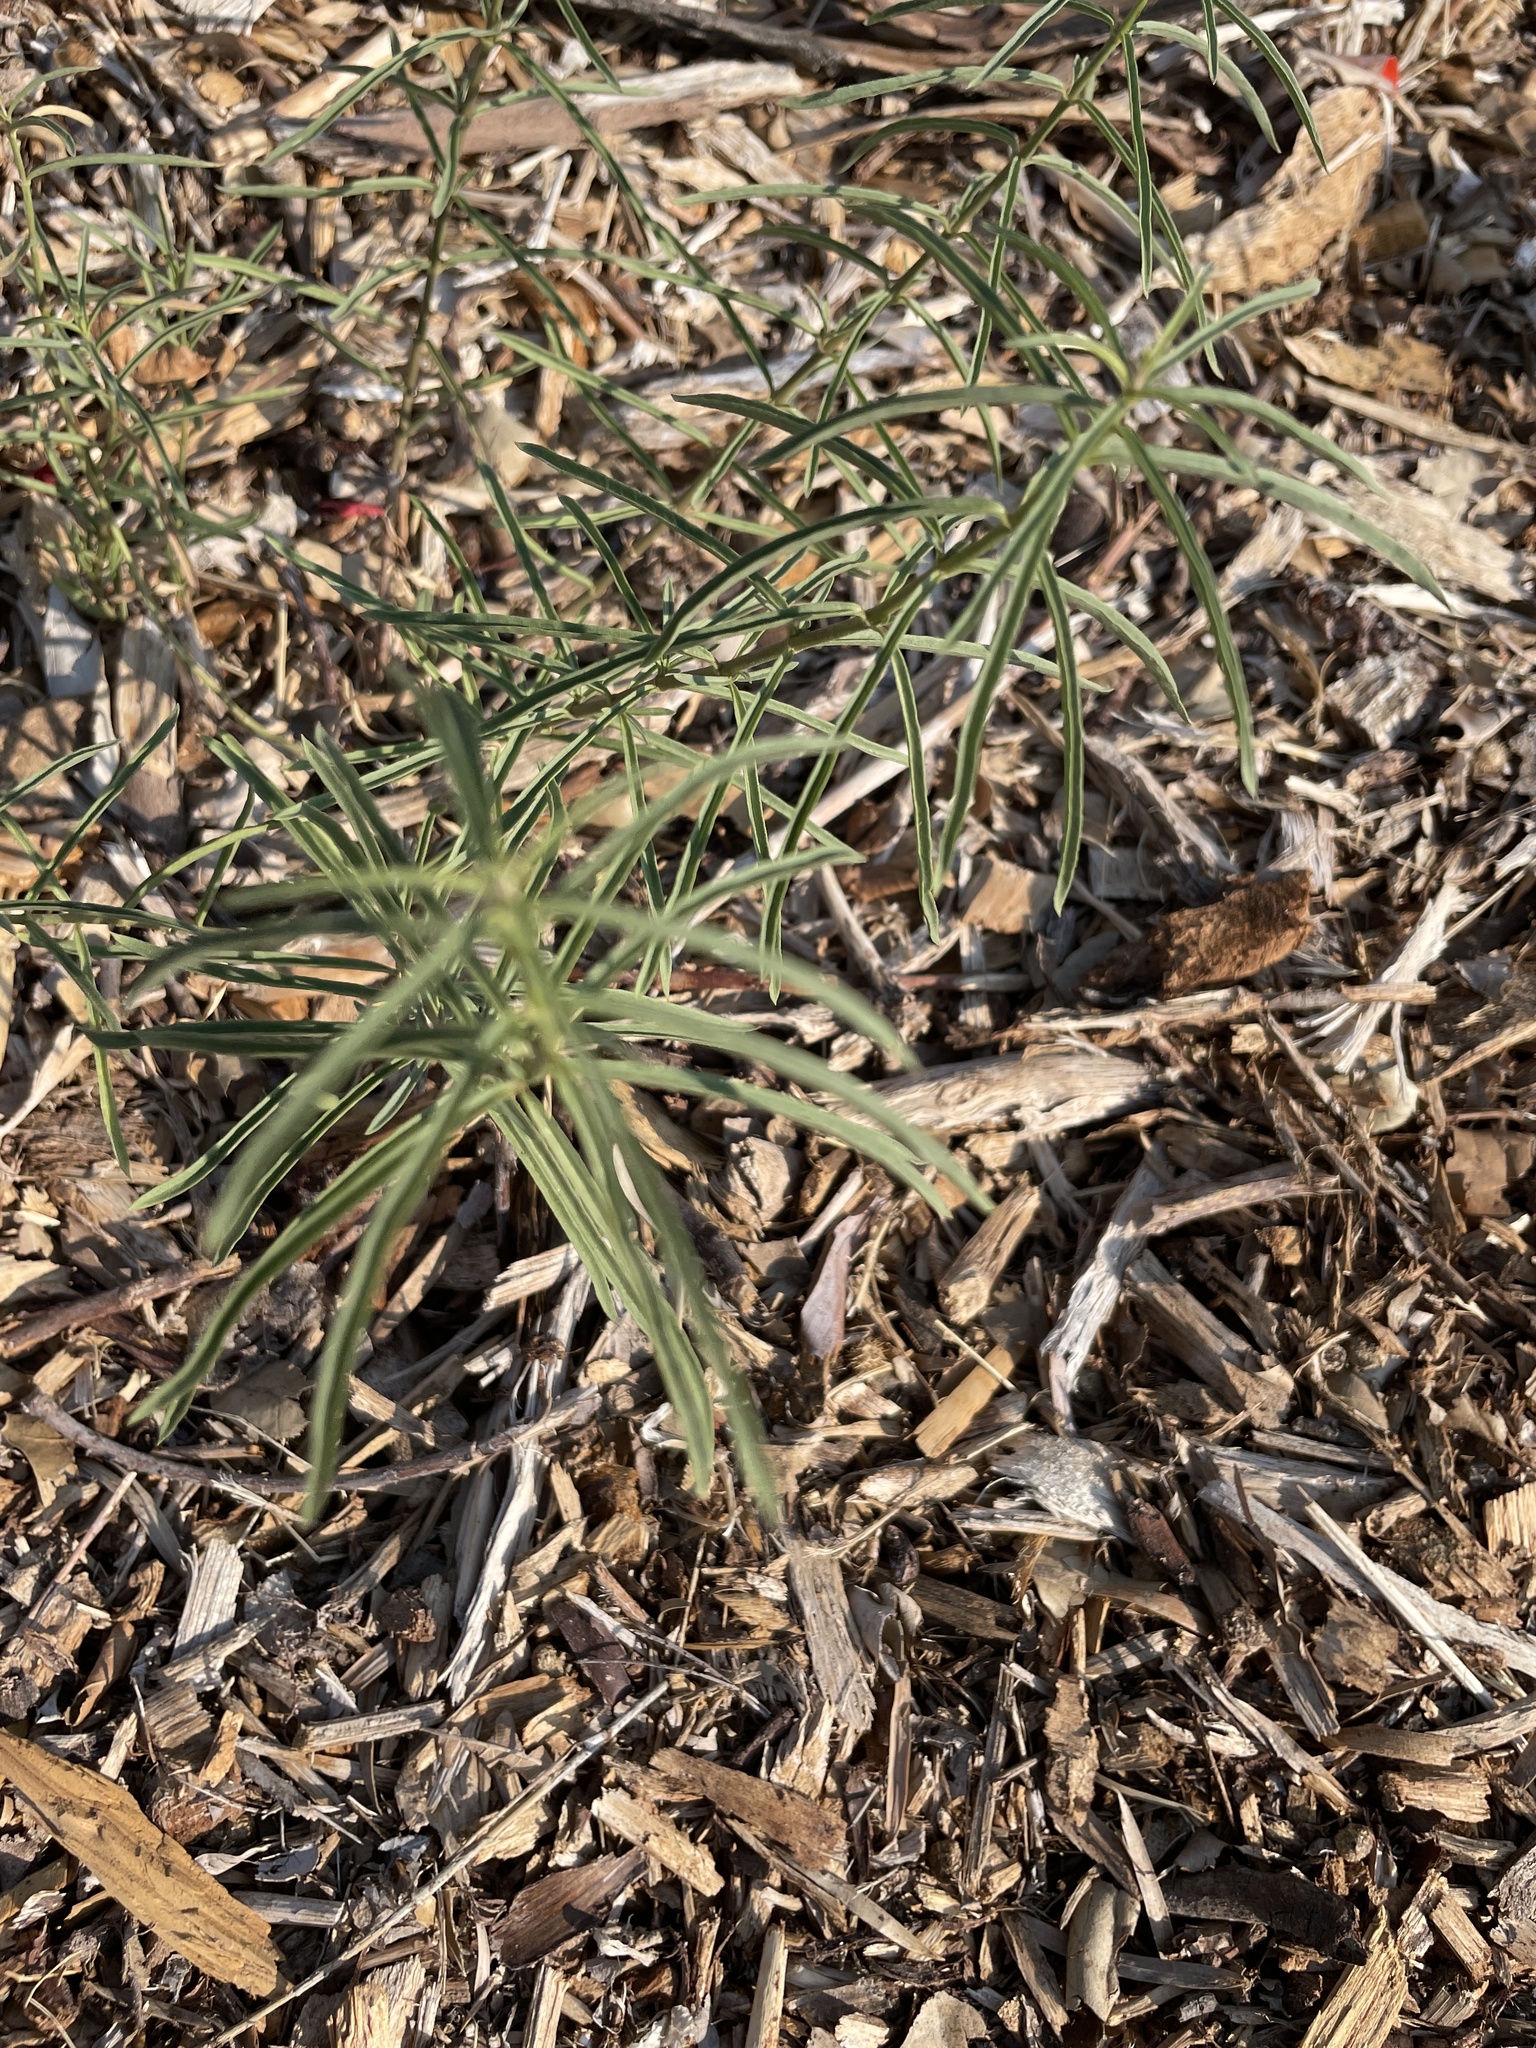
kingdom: Plantae
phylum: Tracheophyta
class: Magnoliopsida
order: Gentianales
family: Apocynaceae
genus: Asclepias
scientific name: Asclepias fascicularis
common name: Mexican milkweed
